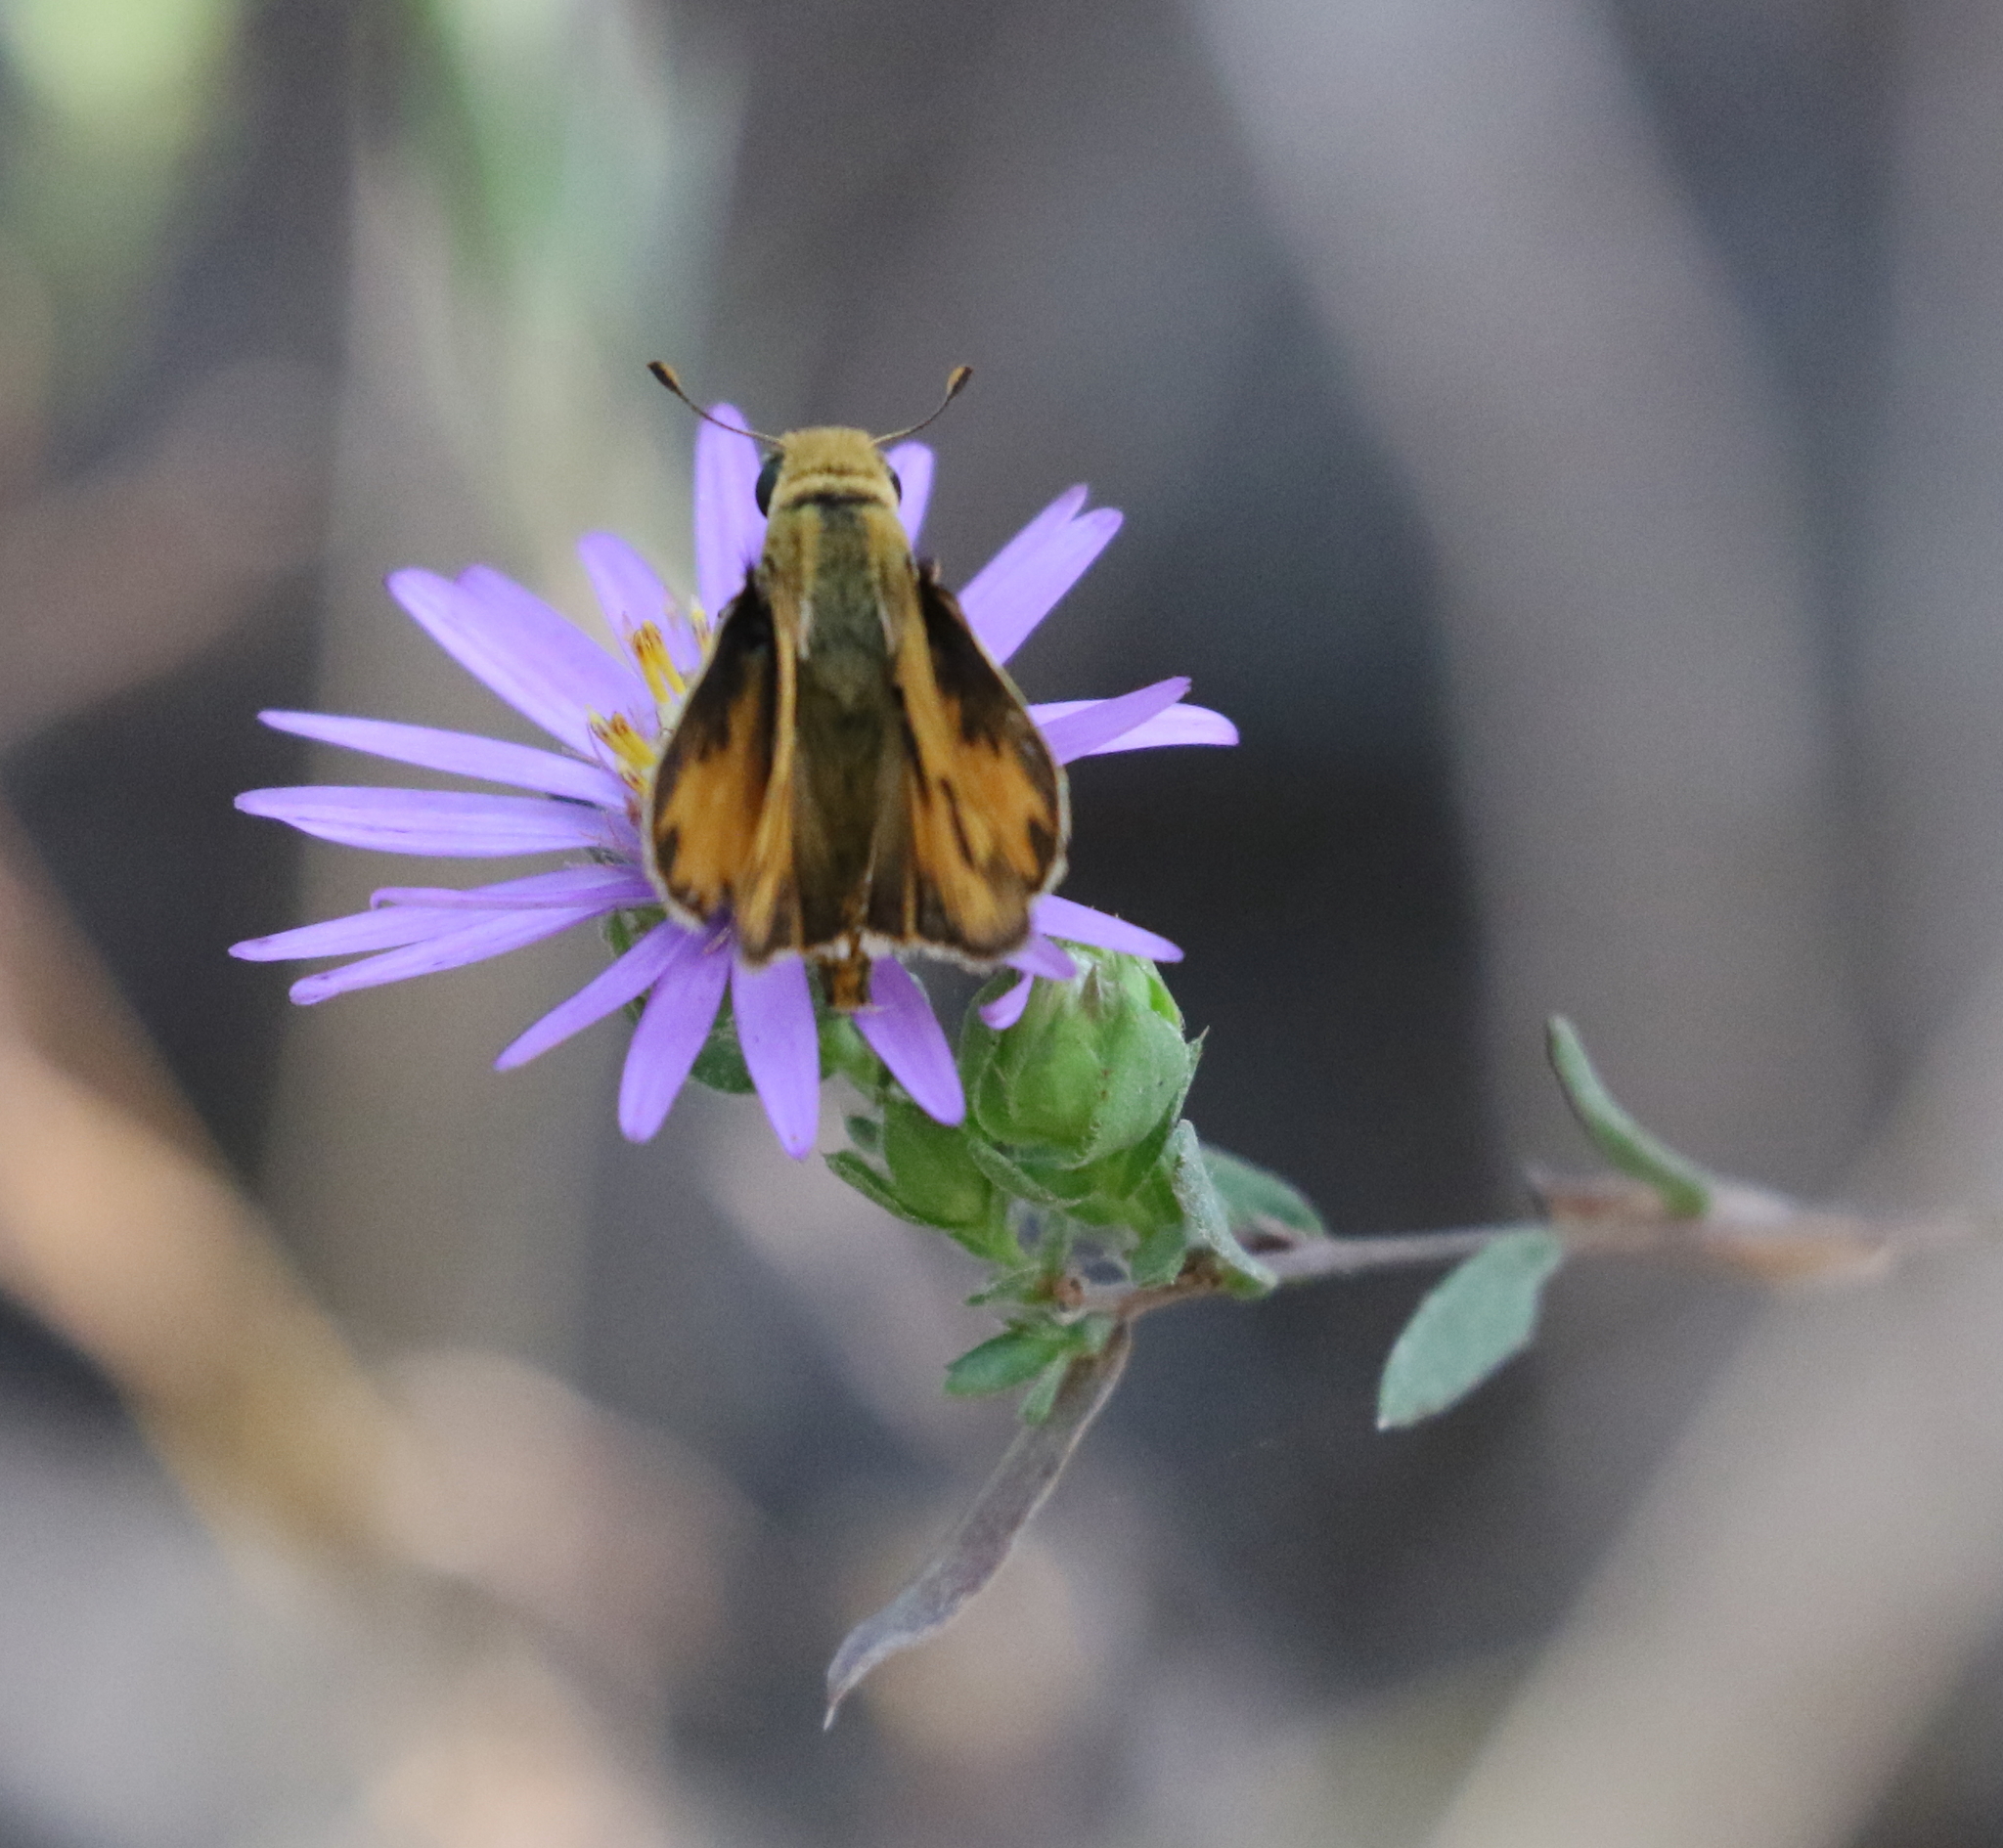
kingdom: Animalia
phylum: Arthropoda
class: Insecta
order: Lepidoptera
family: Hesperiidae
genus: Hylephila
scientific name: Hylephila phyleus
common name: Fiery skipper
